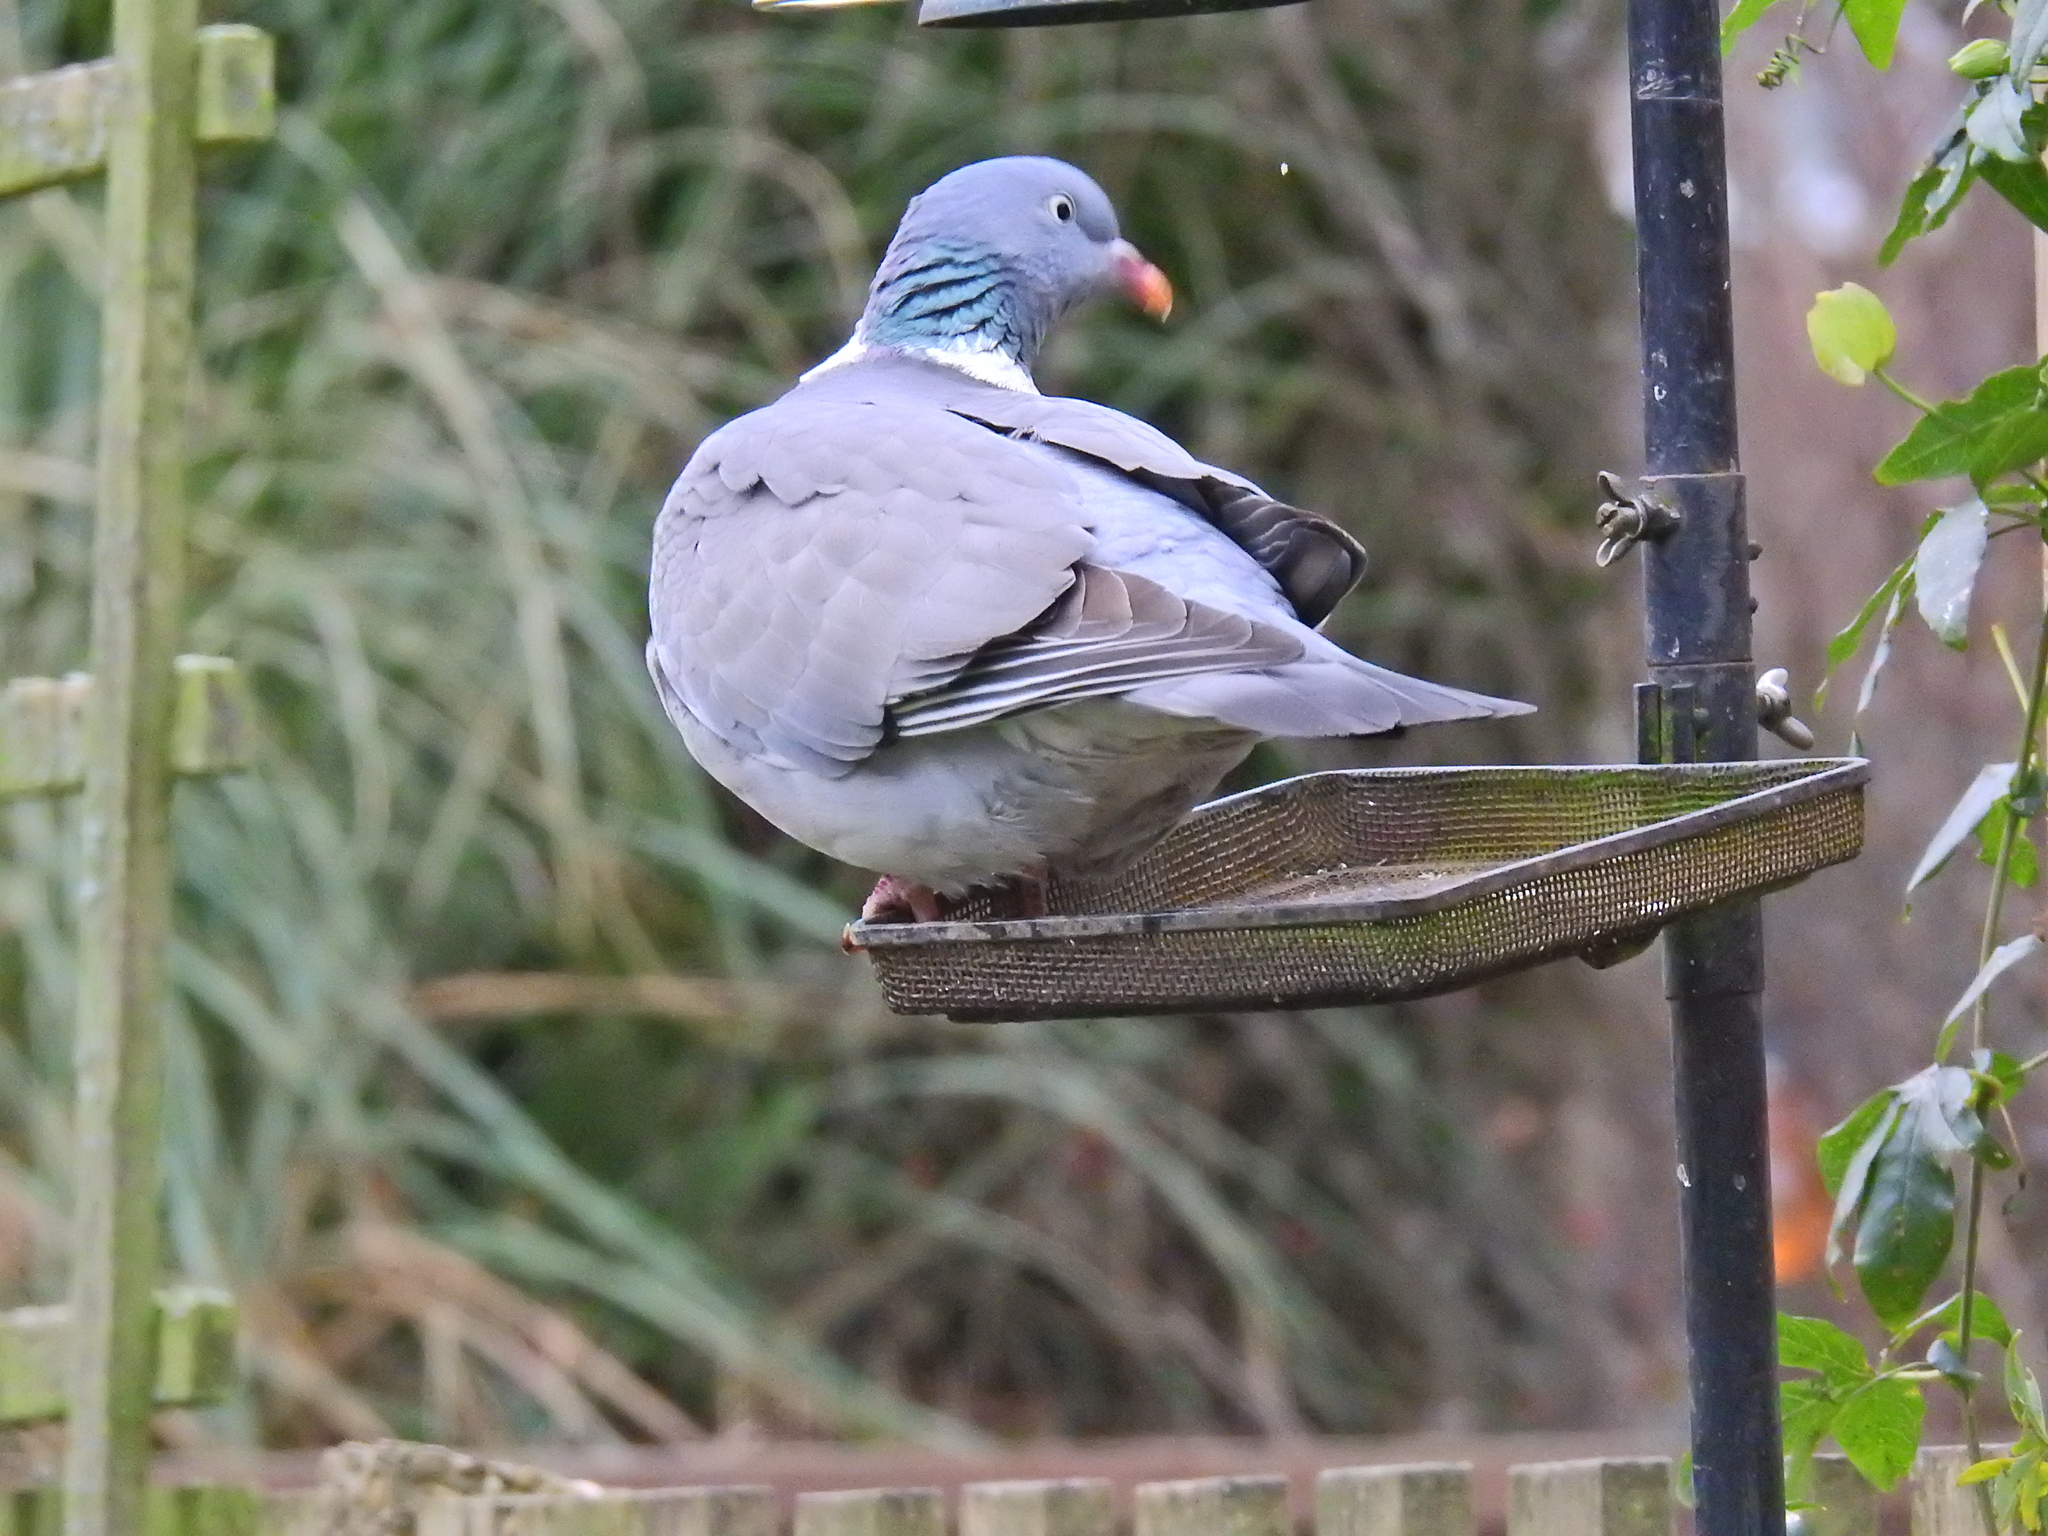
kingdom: Animalia
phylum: Chordata
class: Aves
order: Columbiformes
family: Columbidae
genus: Columba
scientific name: Columba palumbus
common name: Common wood pigeon
